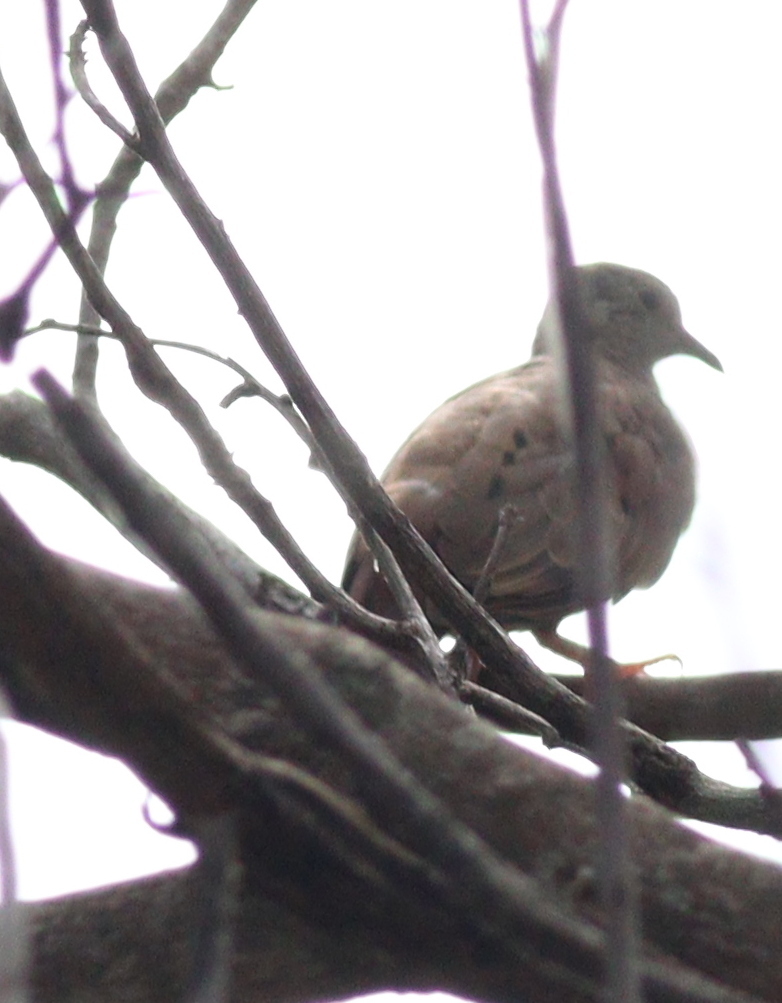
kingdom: Animalia
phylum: Chordata
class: Aves
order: Columbiformes
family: Columbidae
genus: Columbina
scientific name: Columbina talpacoti
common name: Ruddy ground dove
